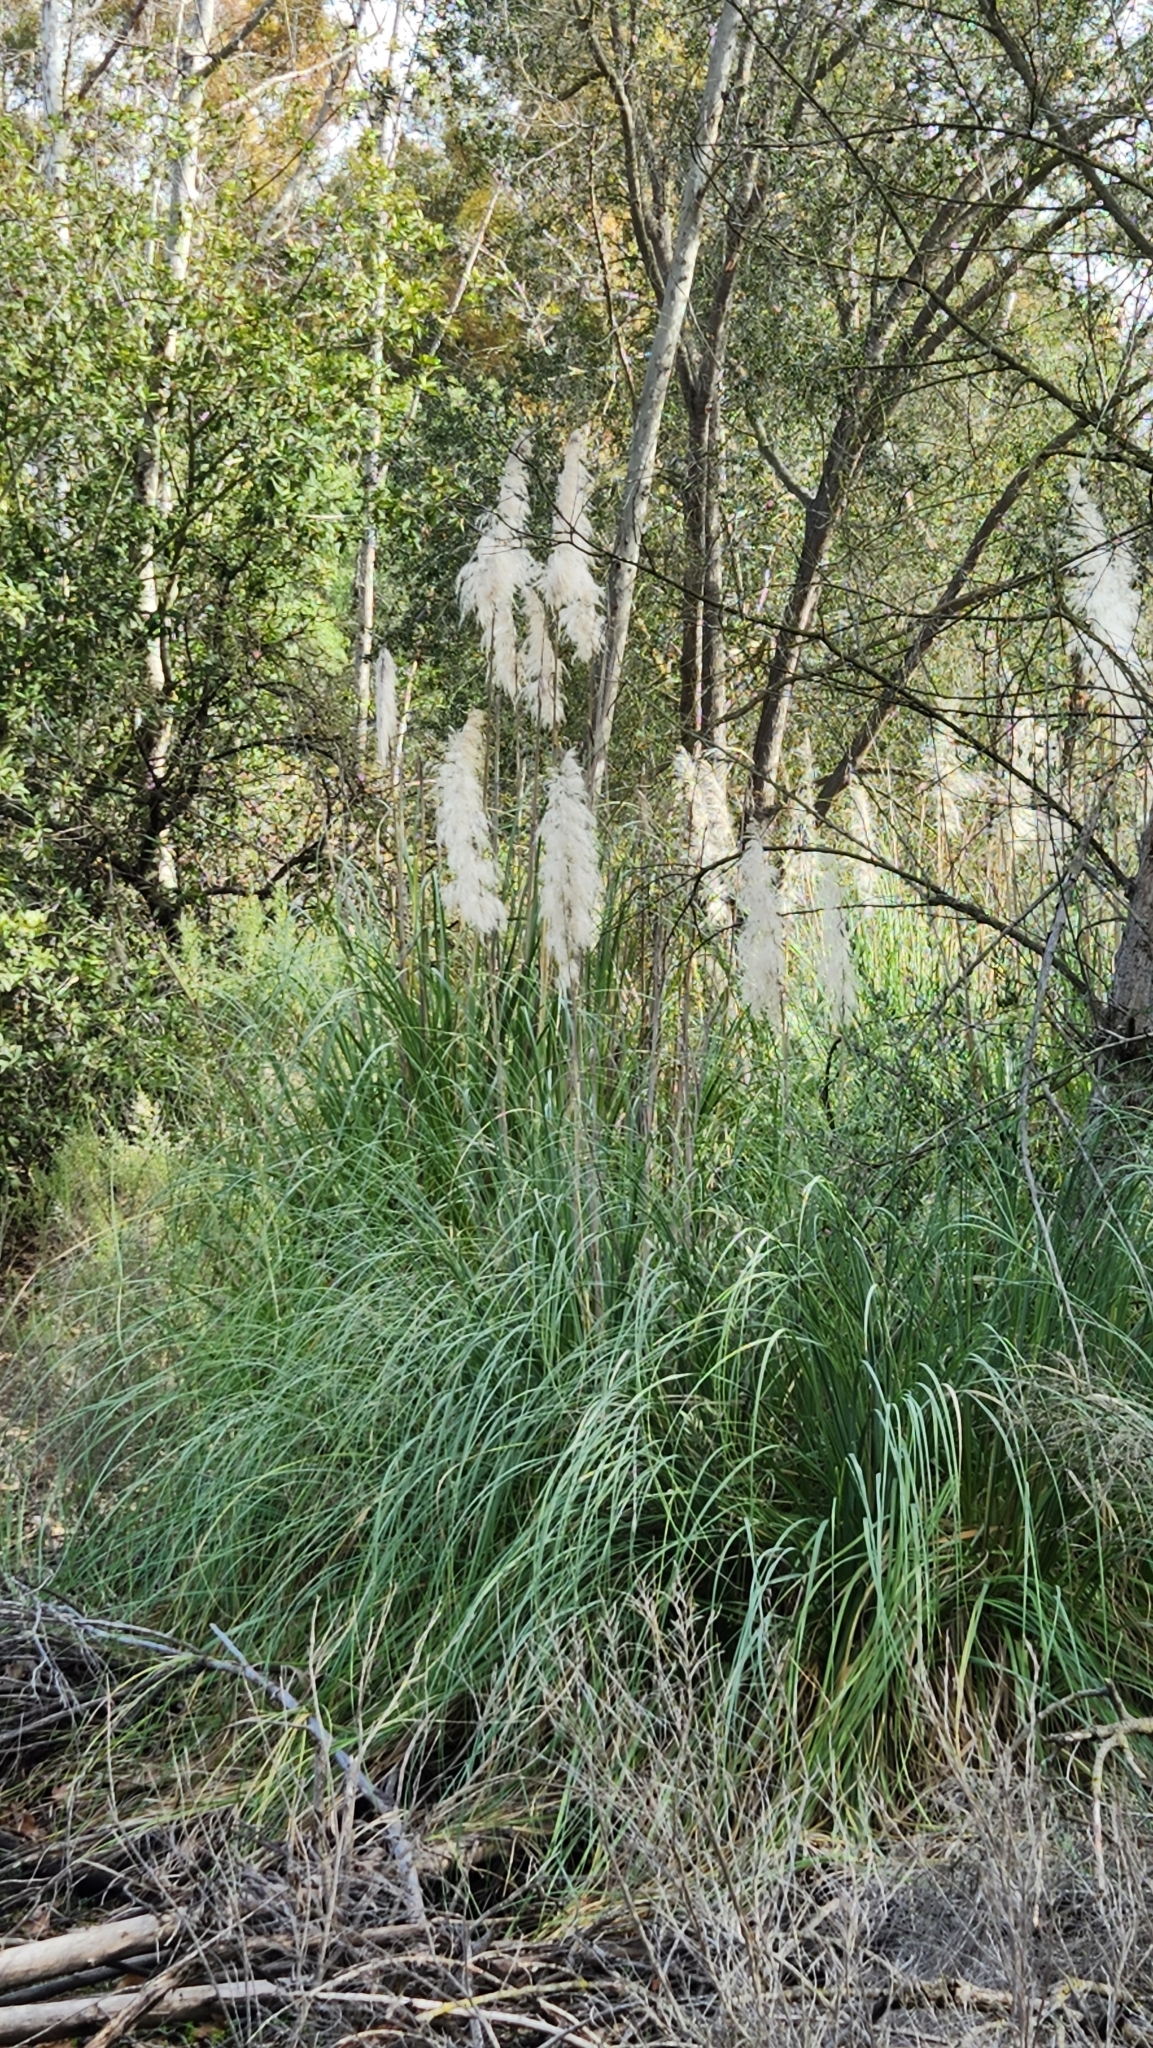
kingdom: Plantae
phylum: Tracheophyta
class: Liliopsida
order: Poales
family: Poaceae
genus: Cortaderia
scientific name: Cortaderia selloana
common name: Uruguayan pampas grass
